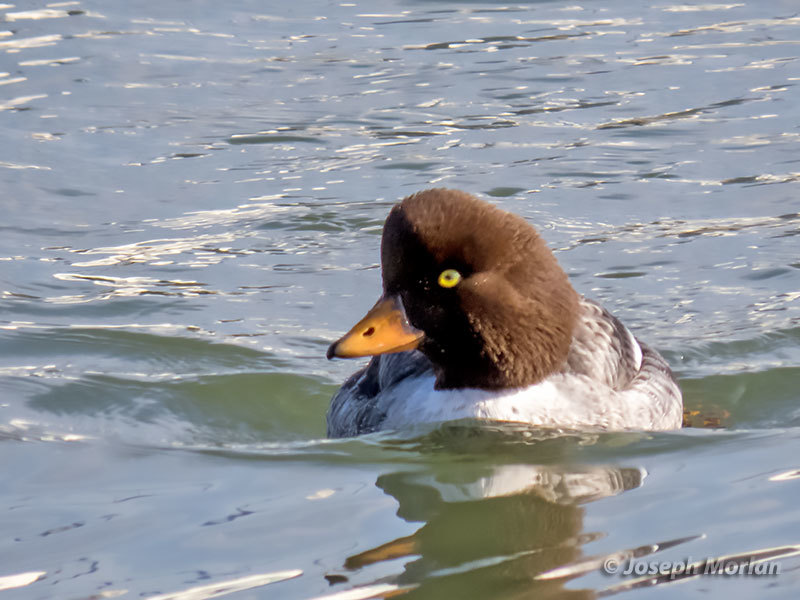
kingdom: Animalia
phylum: Chordata
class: Aves
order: Anseriformes
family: Anatidae
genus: Bucephala
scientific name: Bucephala islandica
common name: Barrow's goldeneye
